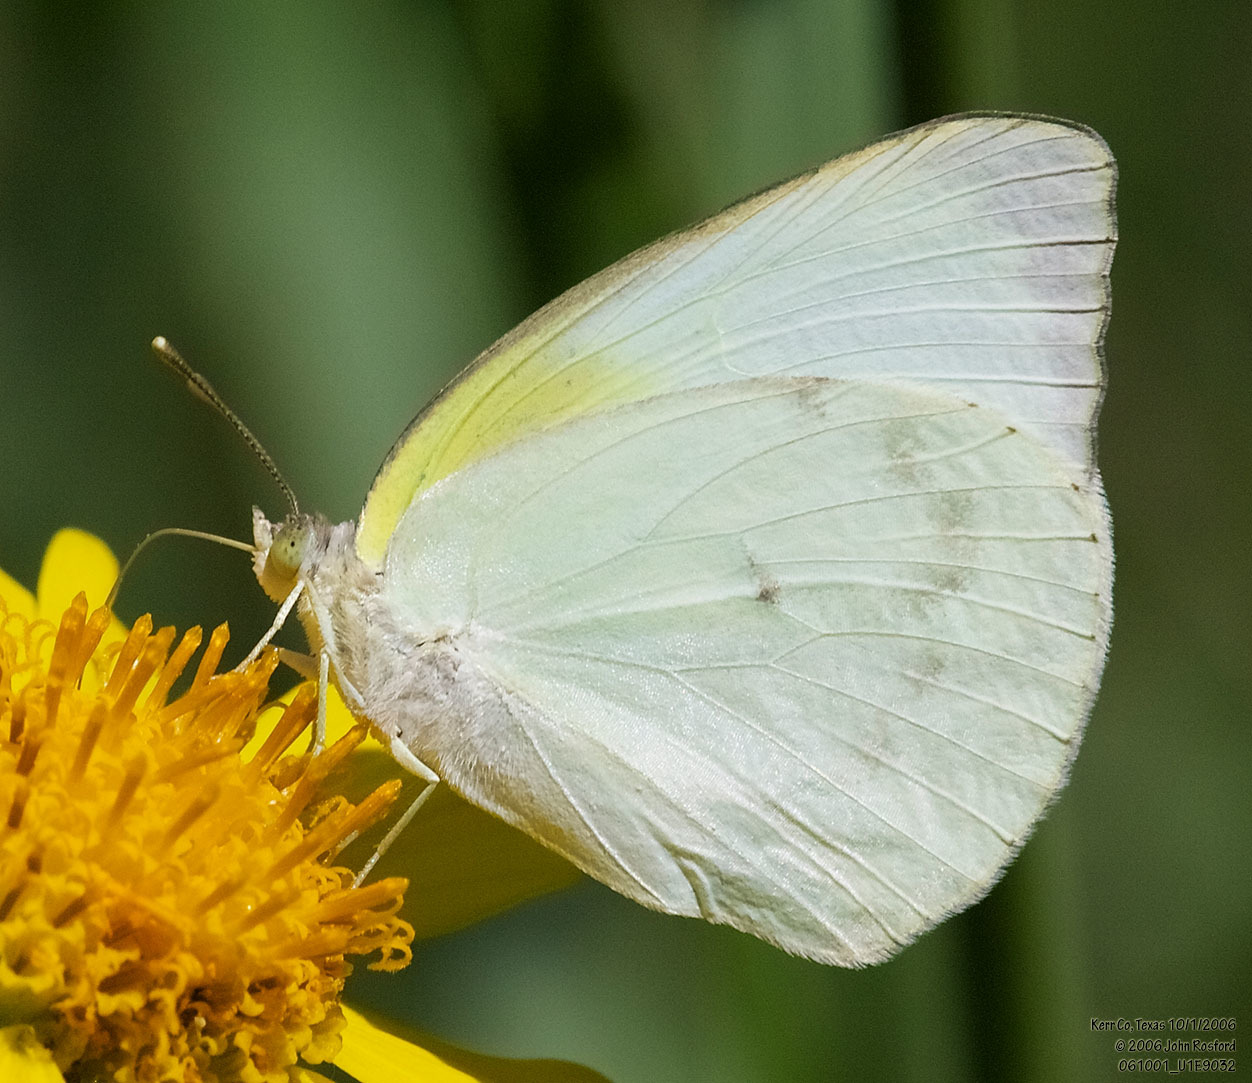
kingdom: Animalia
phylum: Arthropoda
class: Insecta
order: Lepidoptera
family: Pieridae
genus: Kricogonia
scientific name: Kricogonia lyside
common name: Guayacan sulphur,
